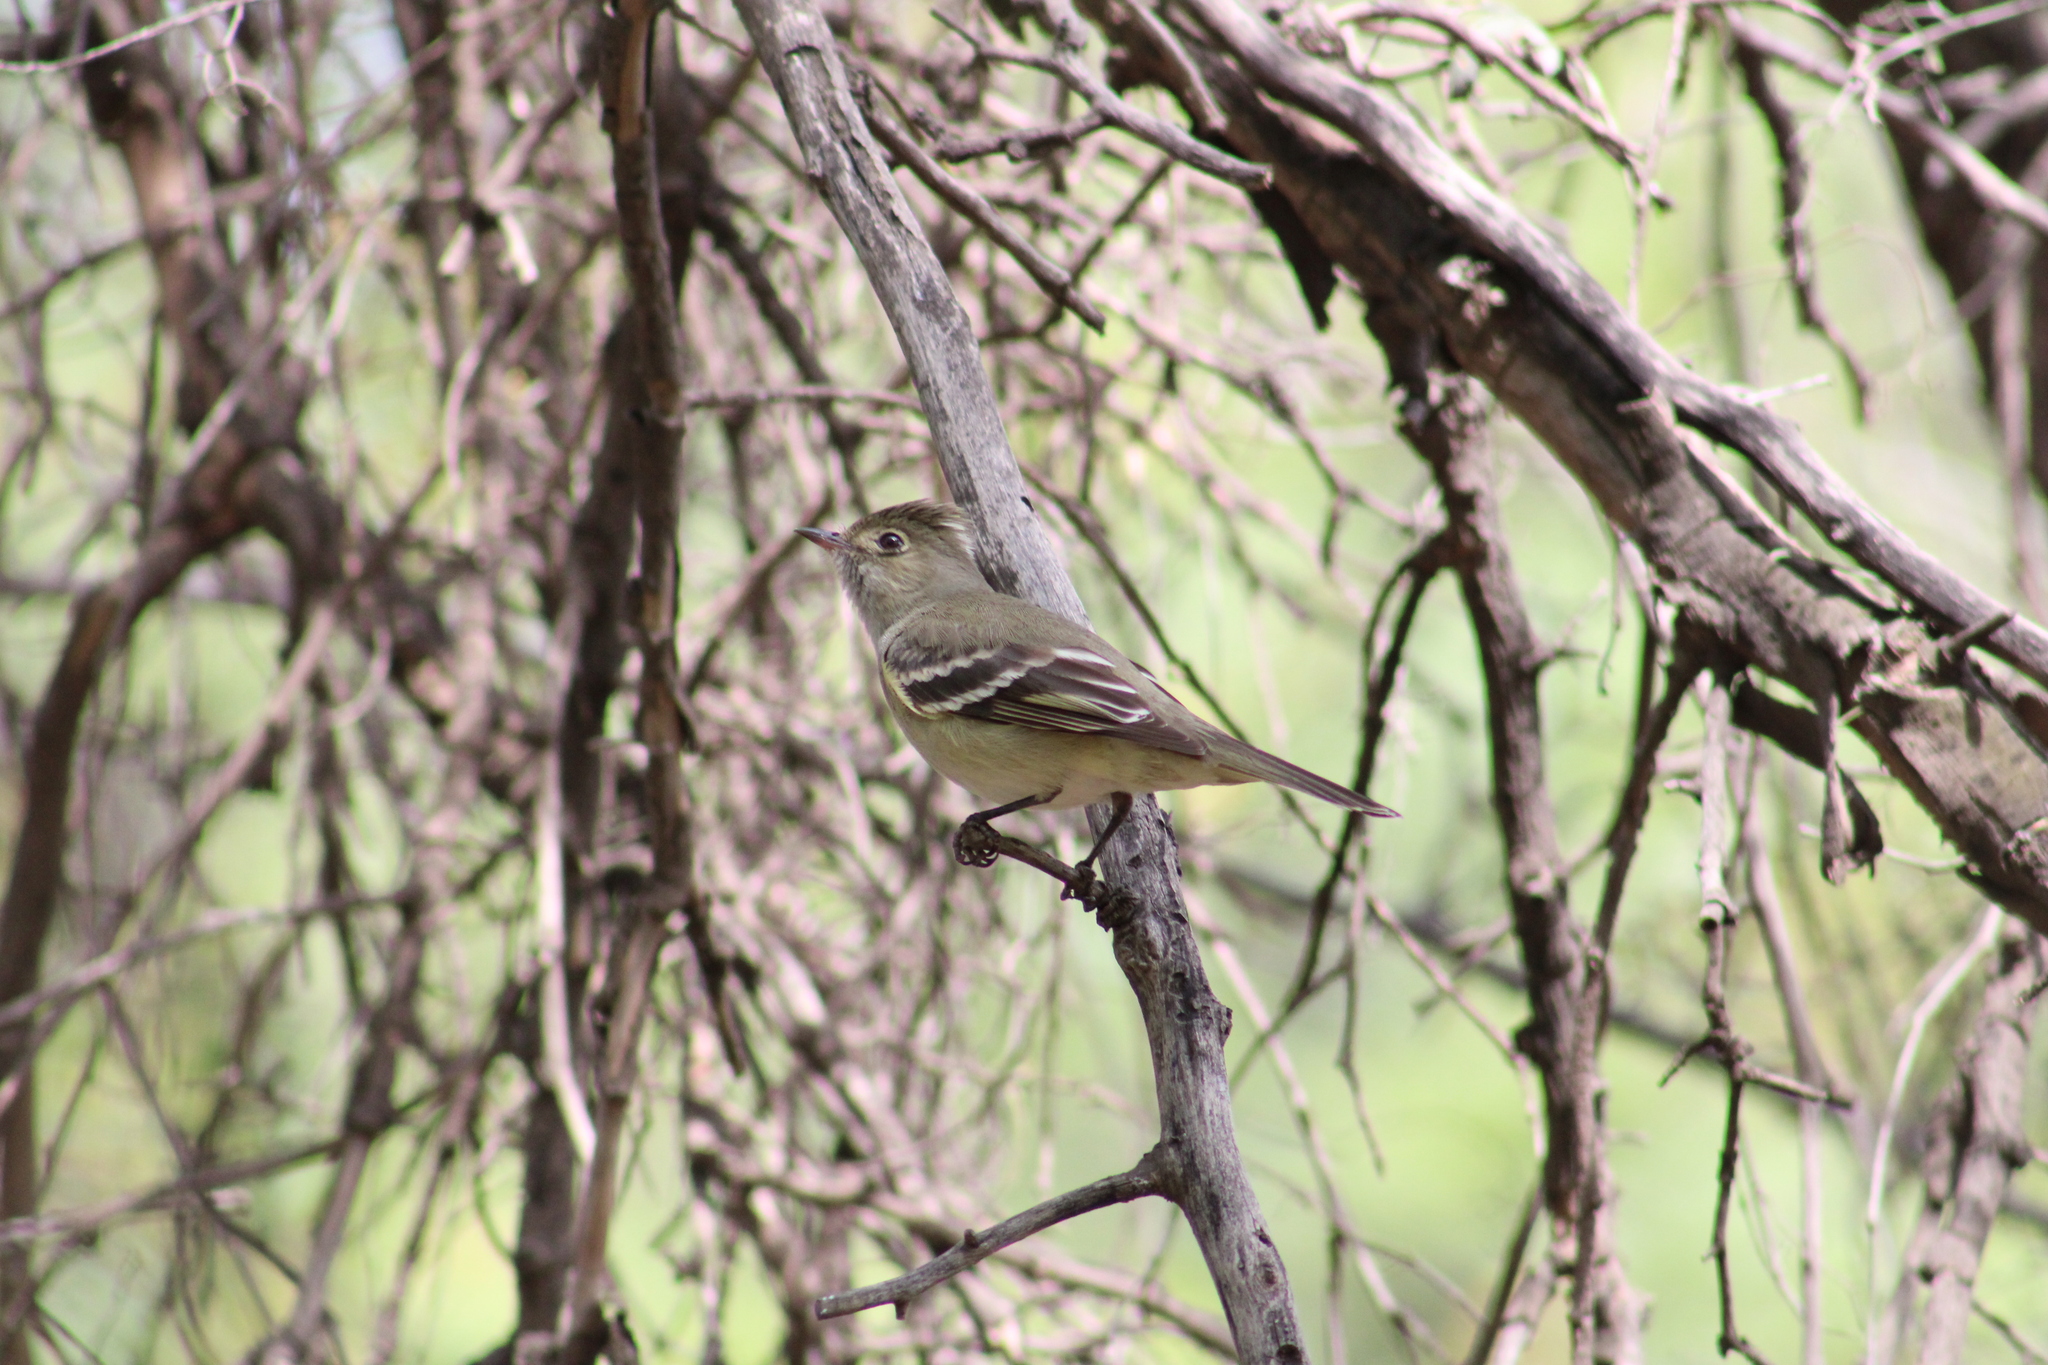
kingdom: Animalia
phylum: Chordata
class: Aves
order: Passeriformes
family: Tyrannidae
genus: Elaenia
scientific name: Elaenia albiceps
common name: White-crested elaenia
